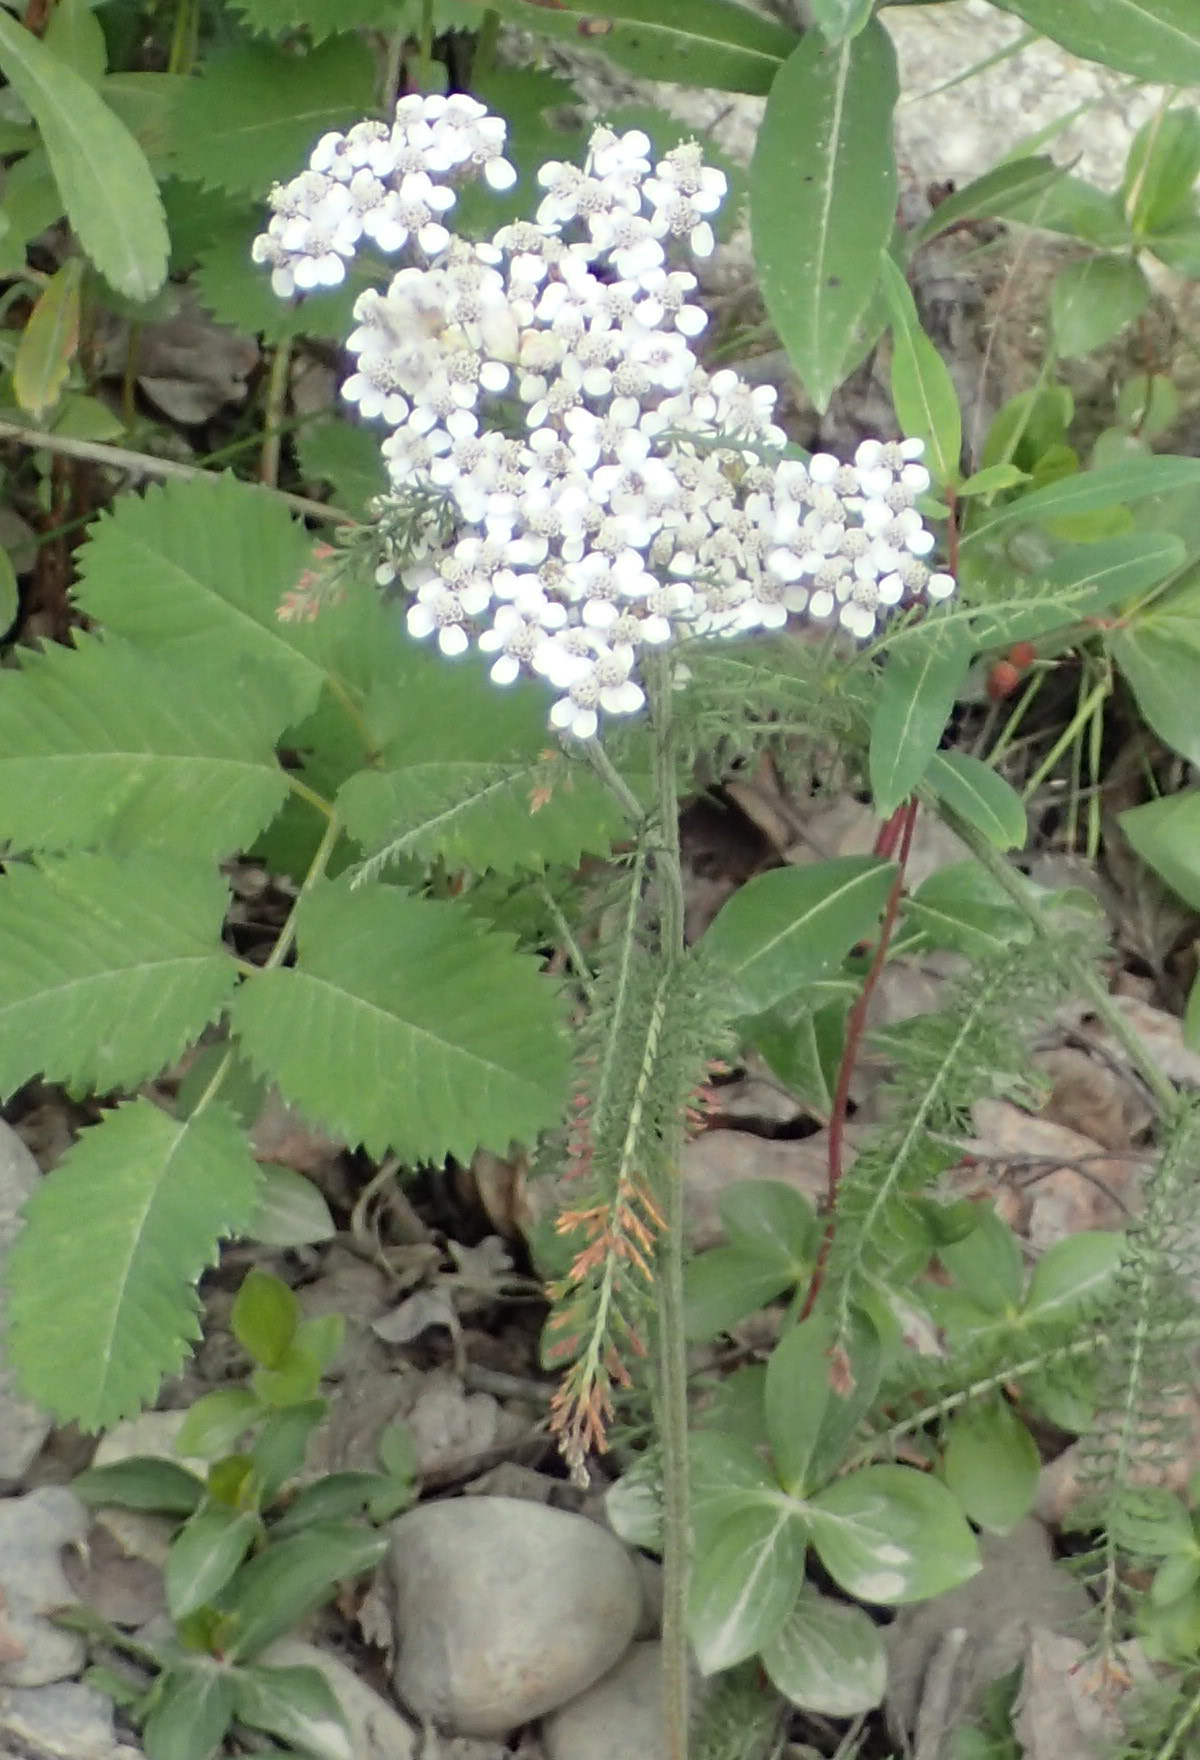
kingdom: Plantae
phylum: Tracheophyta
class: Magnoliopsida
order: Asterales
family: Asteraceae
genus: Achillea
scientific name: Achillea millefolium
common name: Yarrow
